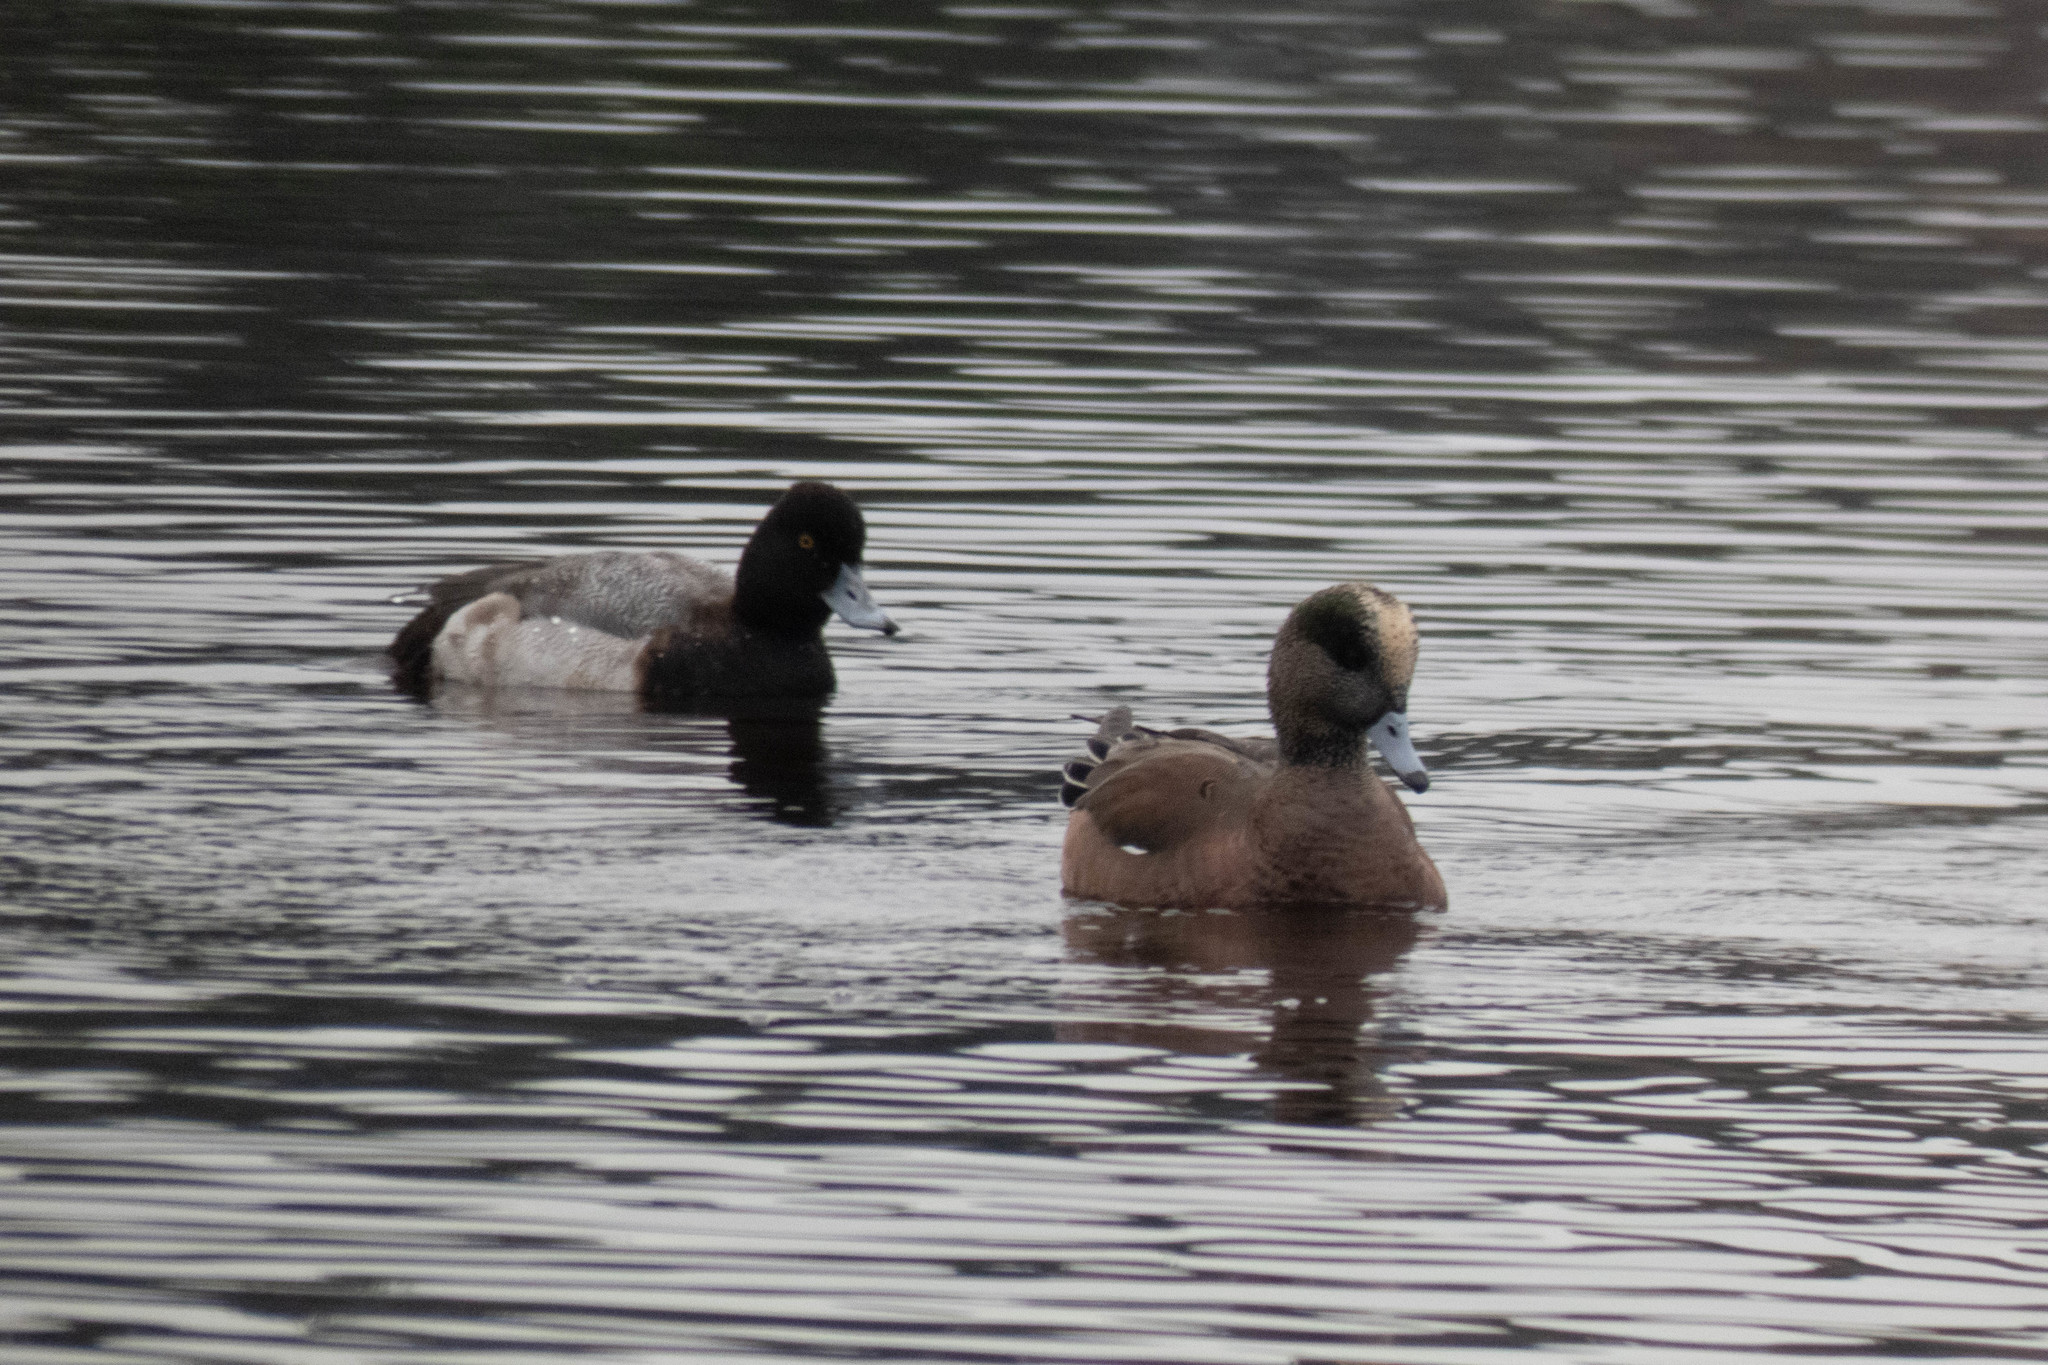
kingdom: Animalia
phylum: Chordata
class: Aves
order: Anseriformes
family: Anatidae
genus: Mareca
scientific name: Mareca americana
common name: American wigeon
